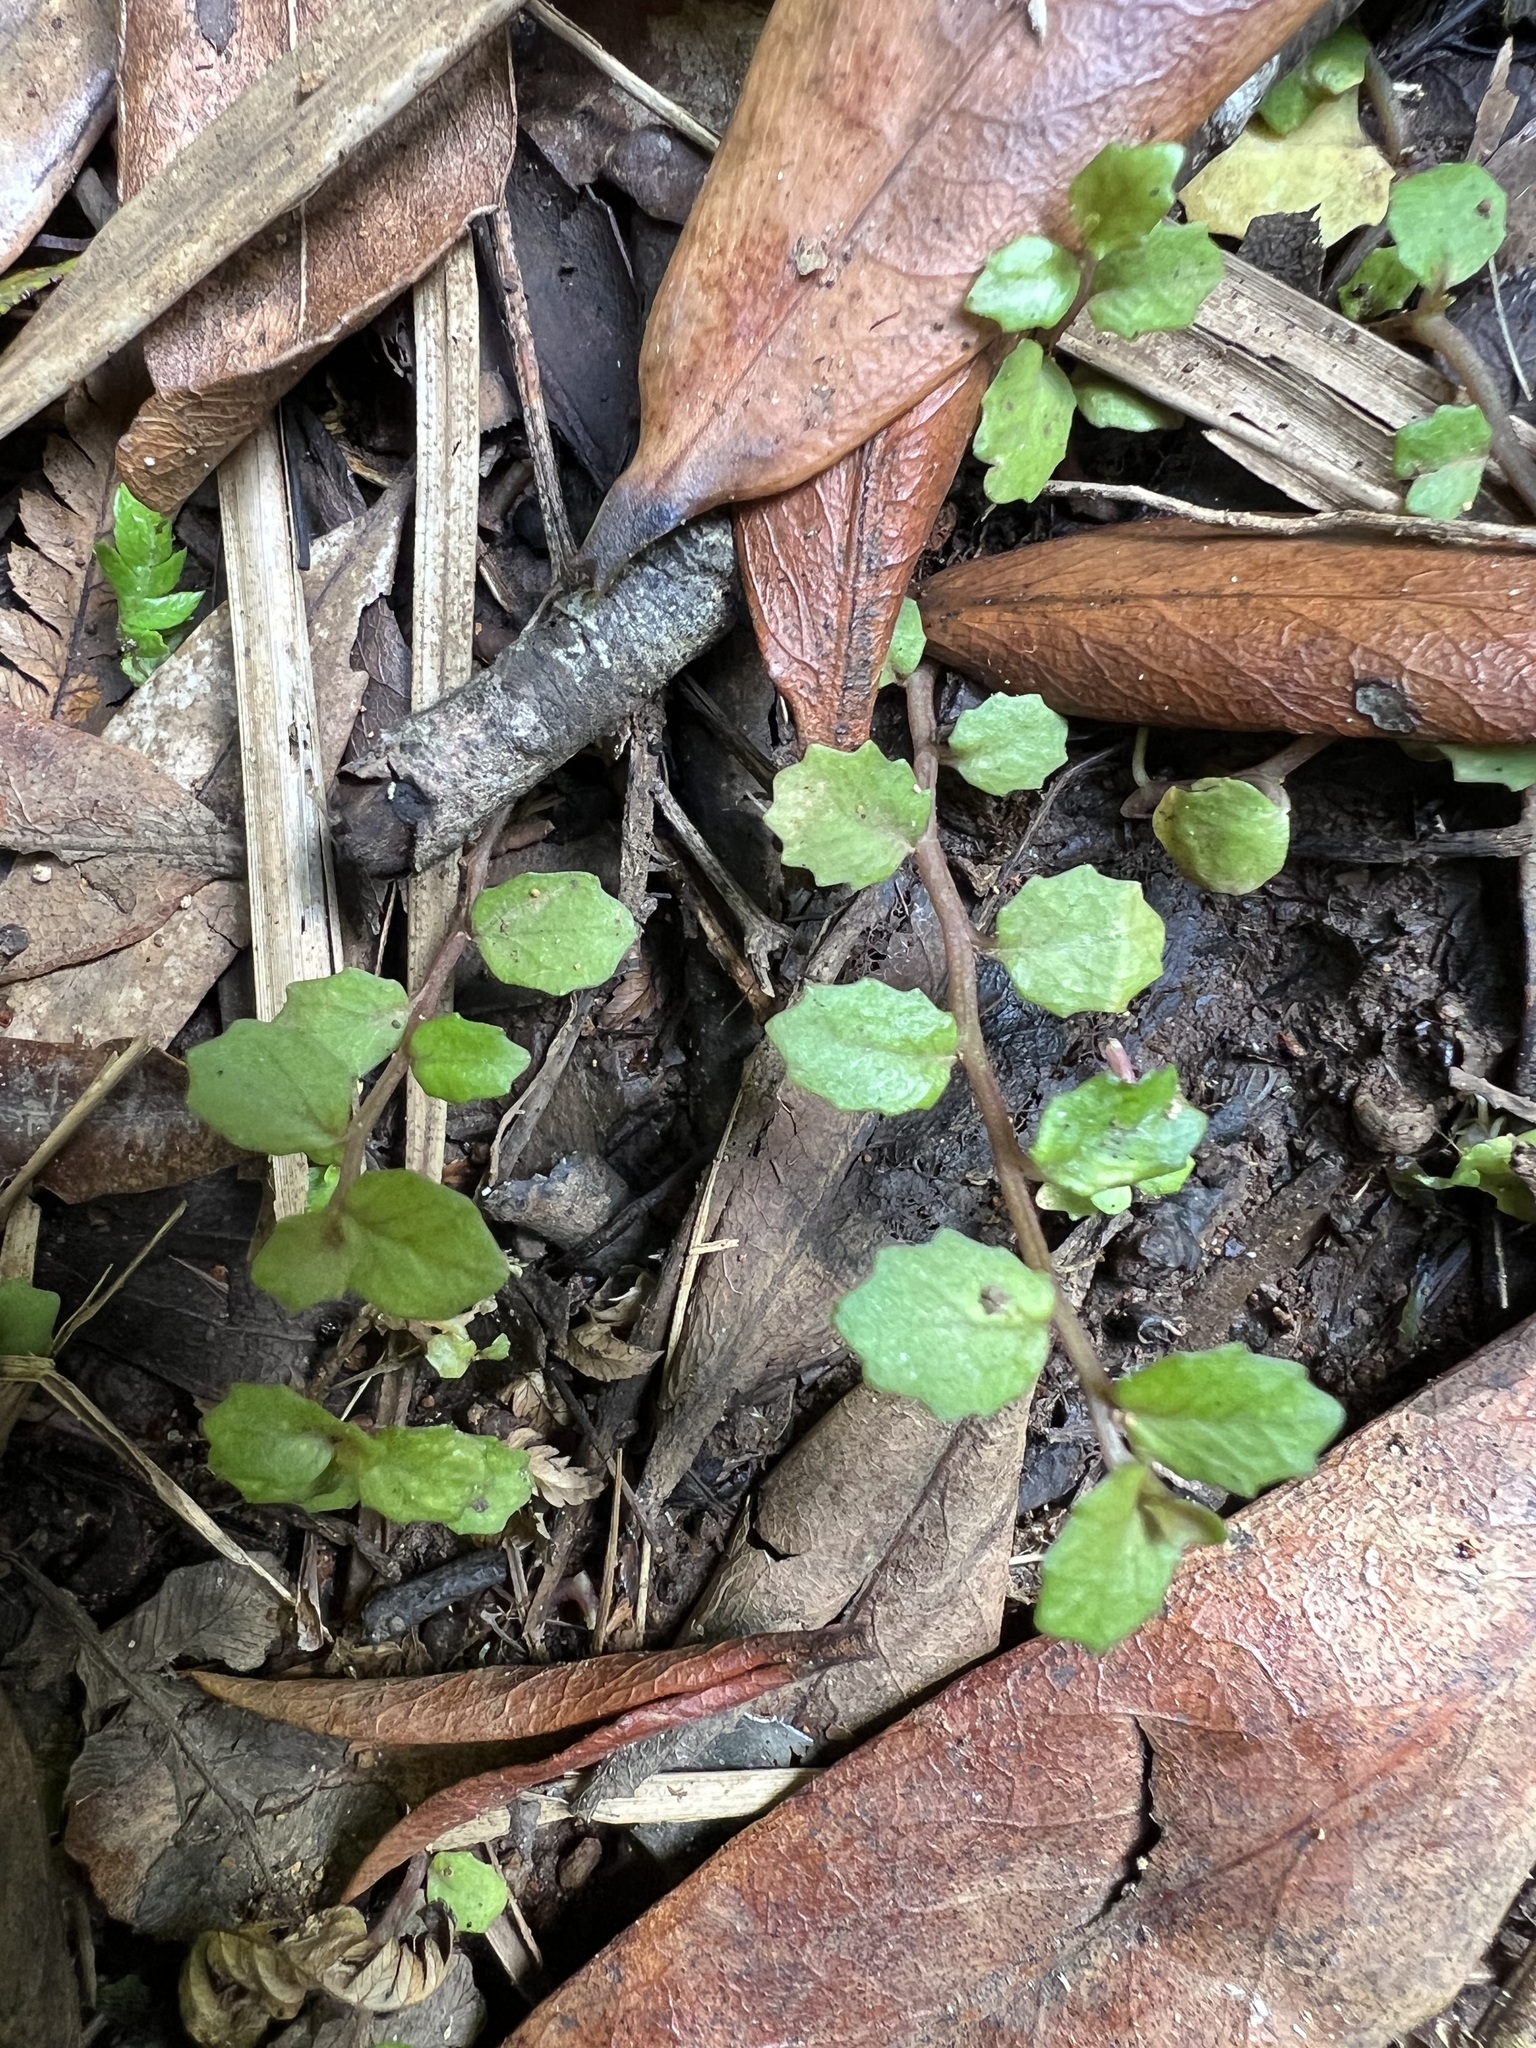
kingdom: Plantae
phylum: Tracheophyta
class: Magnoliopsida
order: Asterales
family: Campanulaceae
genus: Lobelia
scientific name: Lobelia angulata
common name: Lawn lobelia
